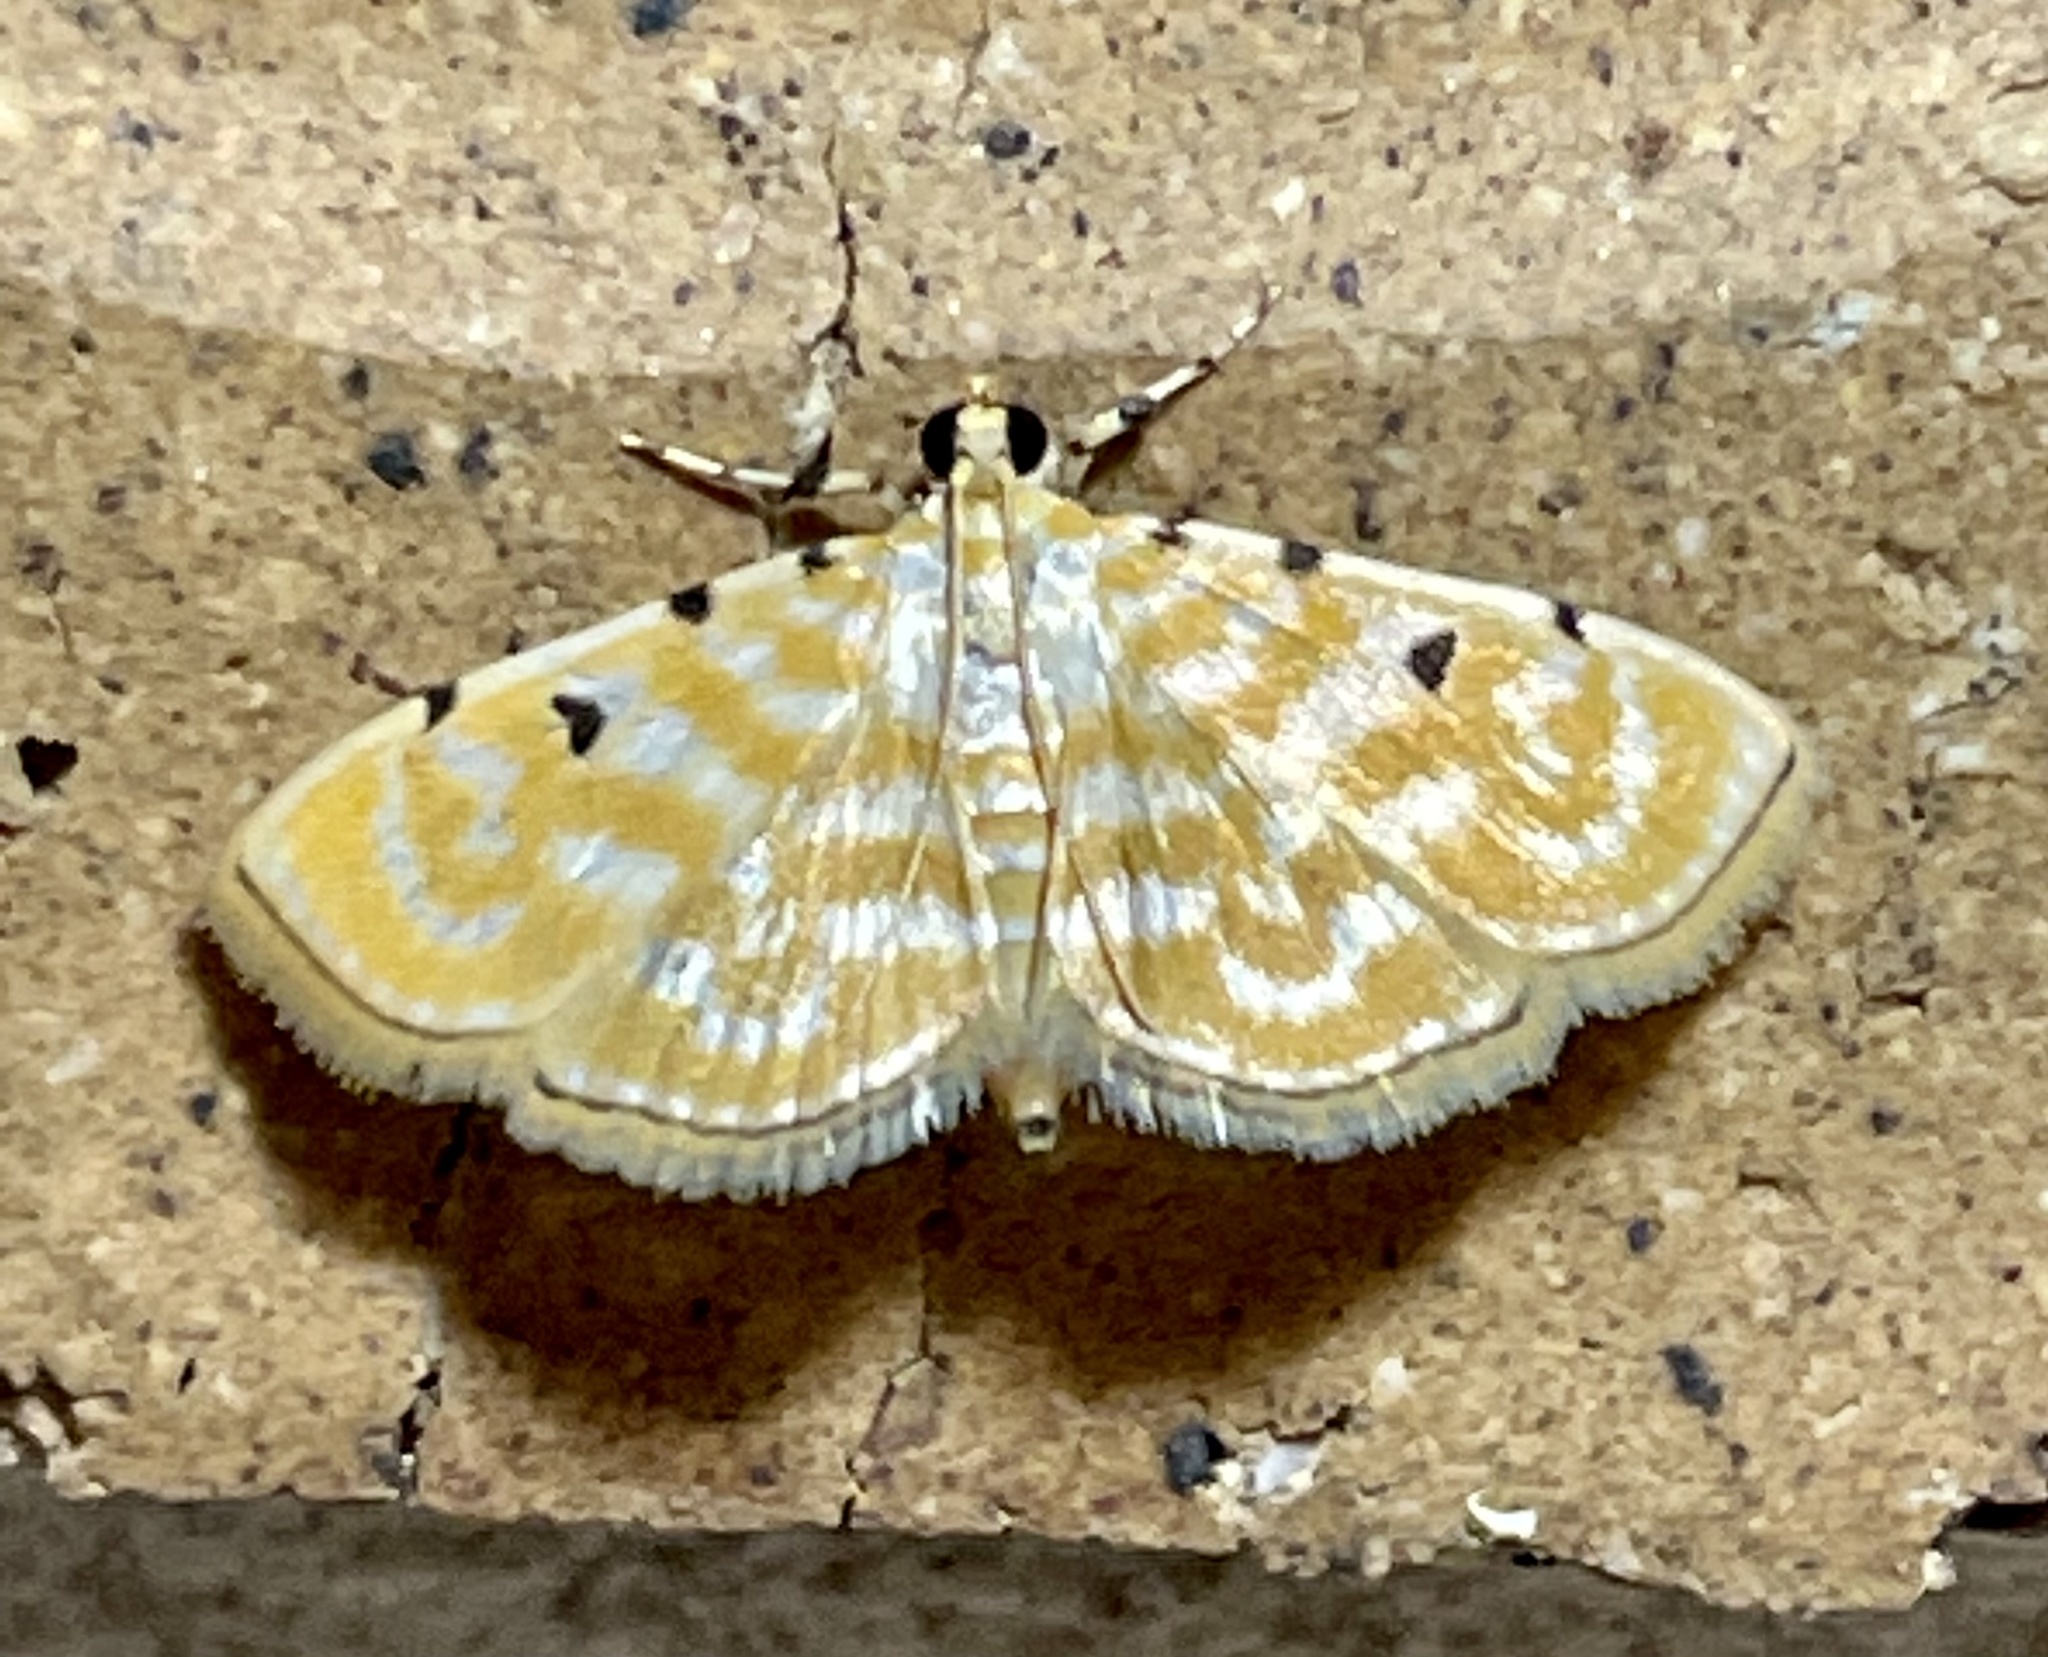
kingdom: Animalia
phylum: Arthropoda
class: Insecta
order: Lepidoptera
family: Crambidae
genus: Notarcha
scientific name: Notarcha aurolinealis
